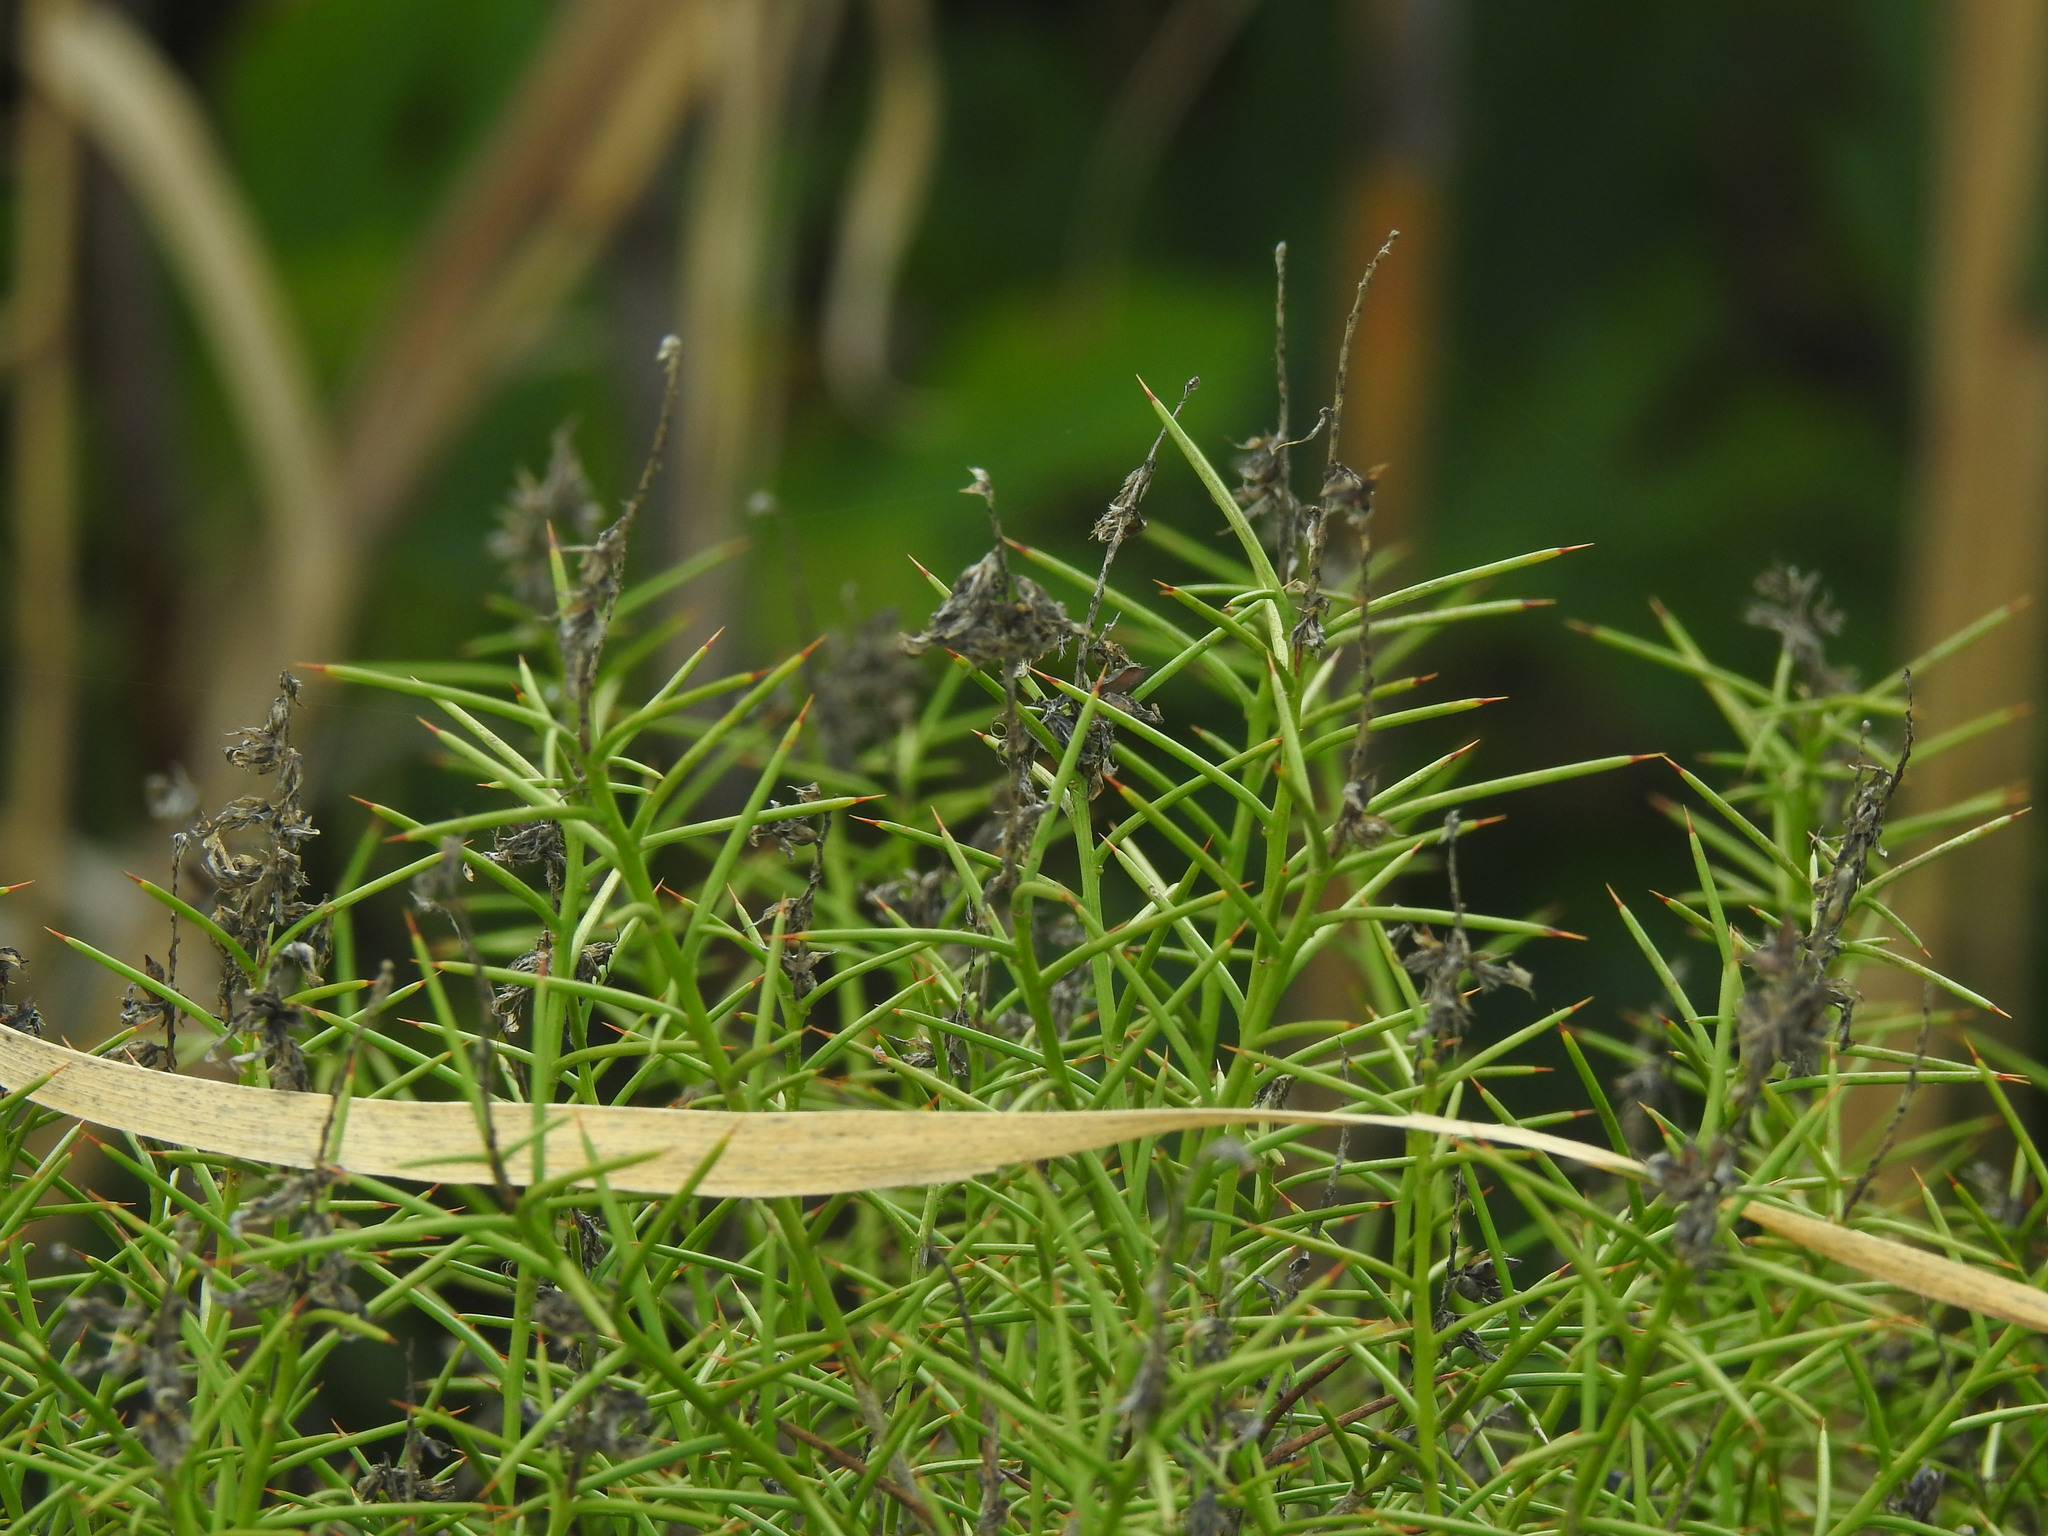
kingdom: Plantae
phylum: Tracheophyta
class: Magnoliopsida
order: Fabales
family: Fabaceae
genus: Genista
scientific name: Genista hirsuta
